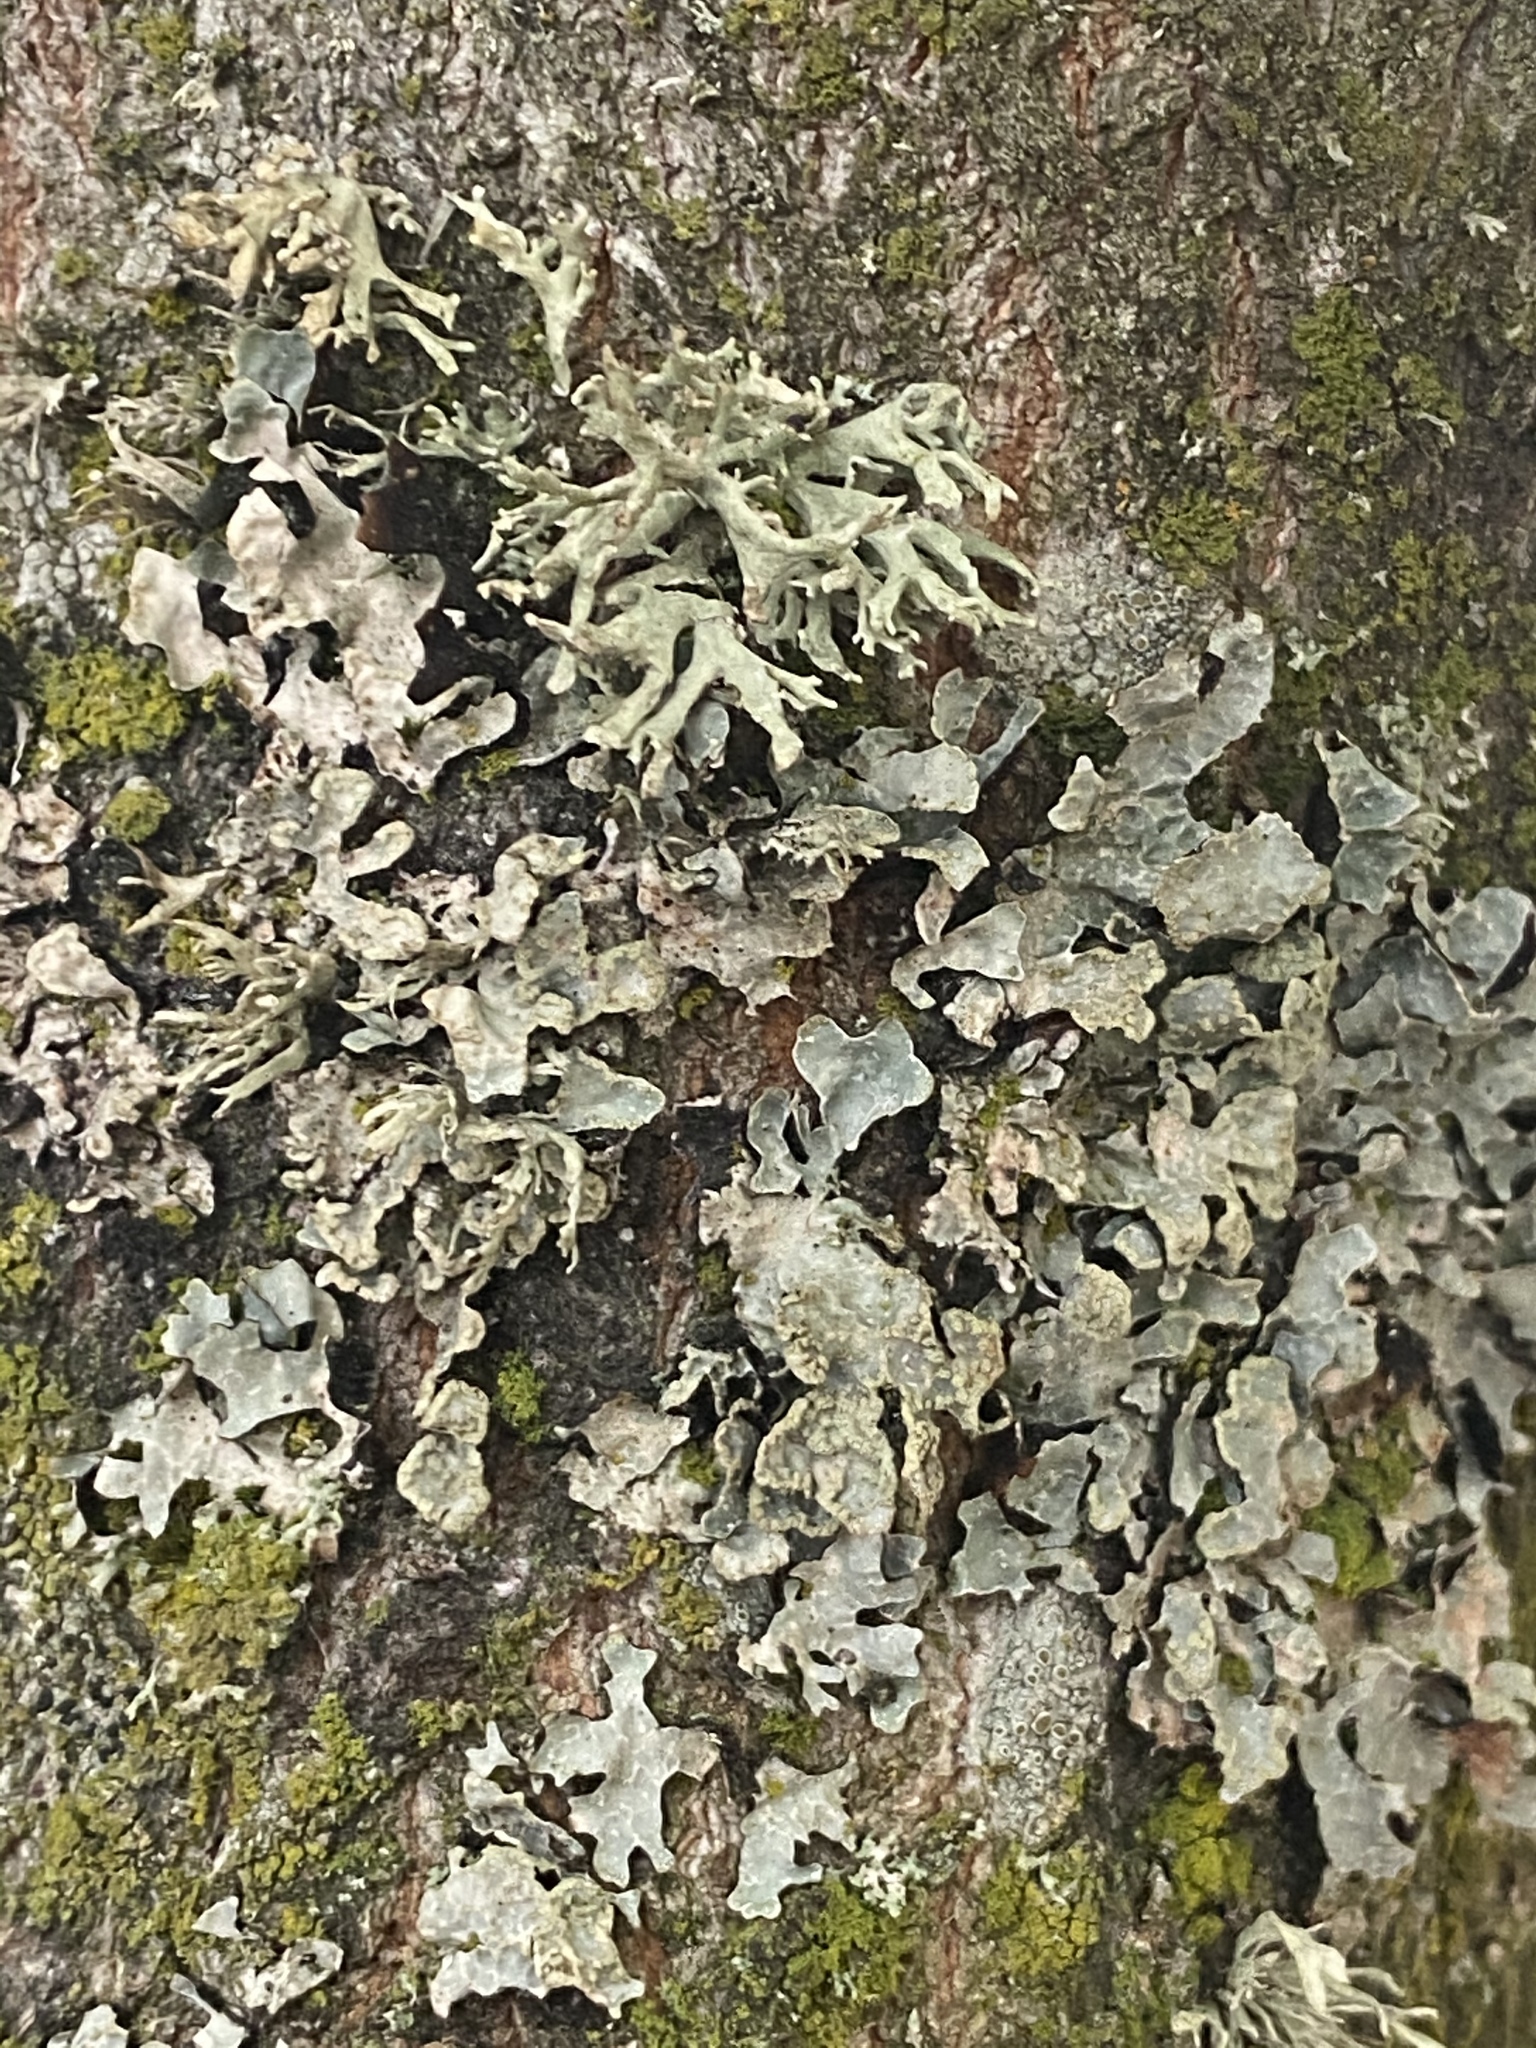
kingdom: Fungi
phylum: Ascomycota
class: Lecanoromycetes
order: Lecanorales
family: Parmeliaceae
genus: Evernia
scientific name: Evernia prunastri
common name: Oak moss
